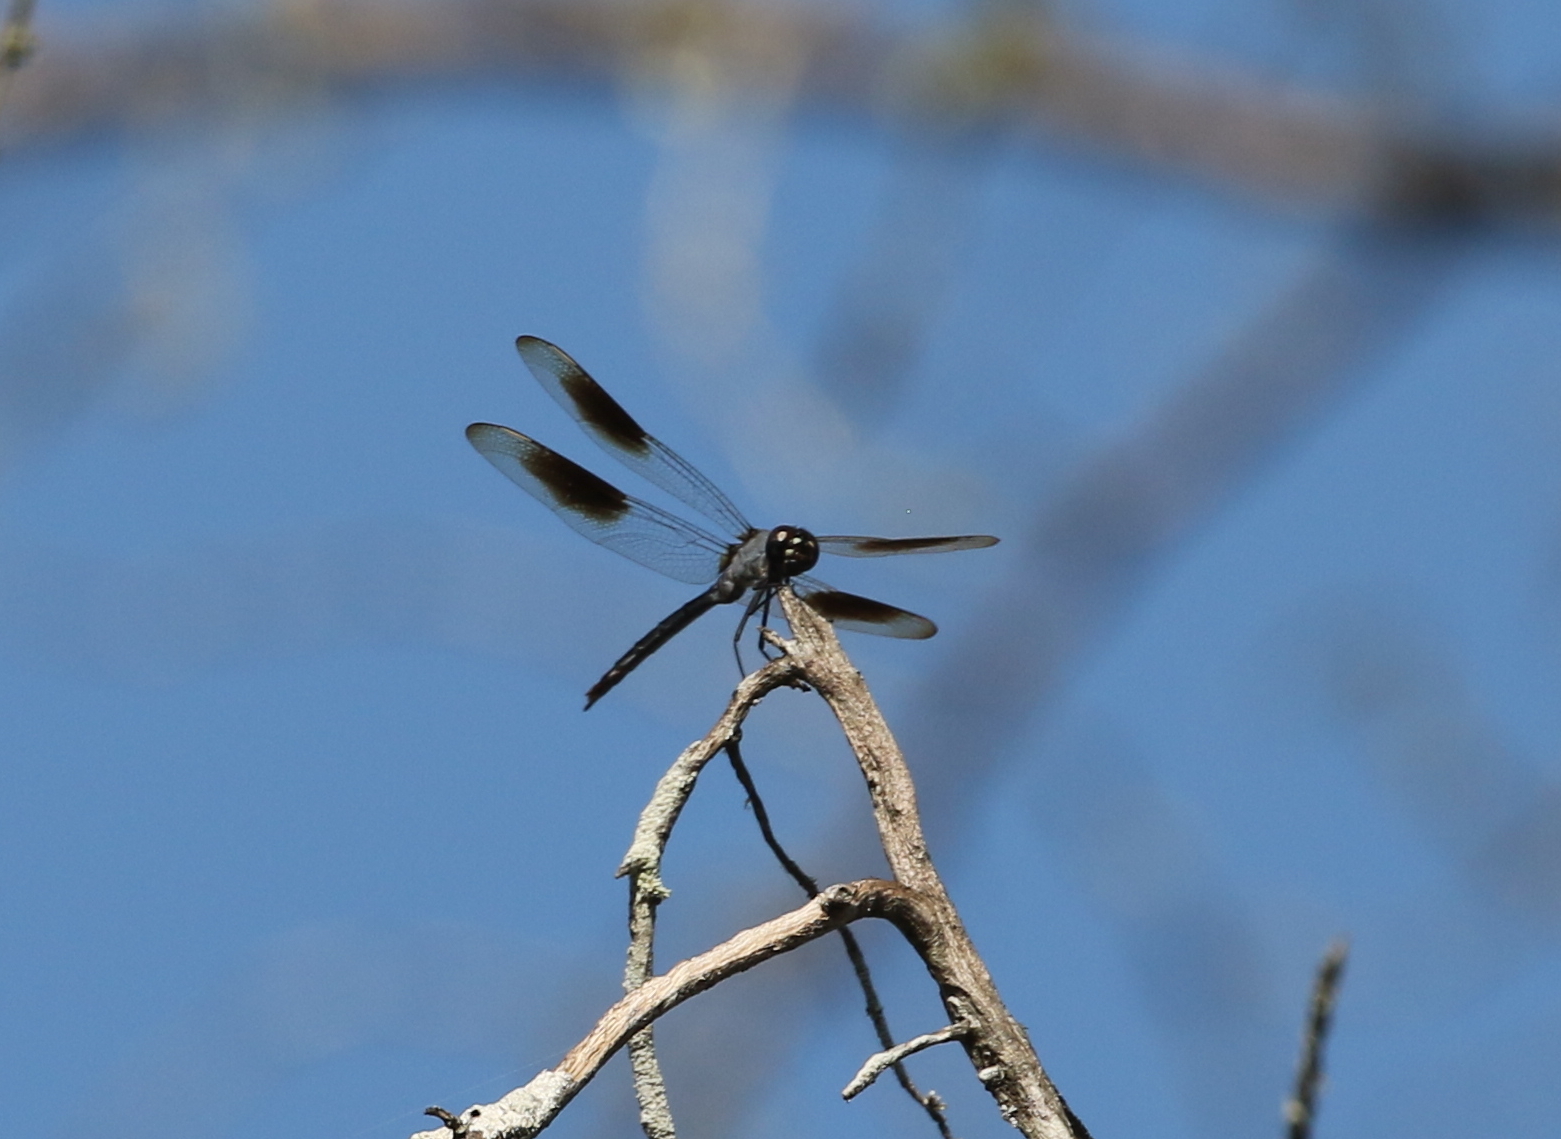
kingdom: Animalia
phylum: Arthropoda
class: Insecta
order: Odonata
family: Libellulidae
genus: Brachymesia
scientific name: Brachymesia gravida
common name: Four-spotted pennant
